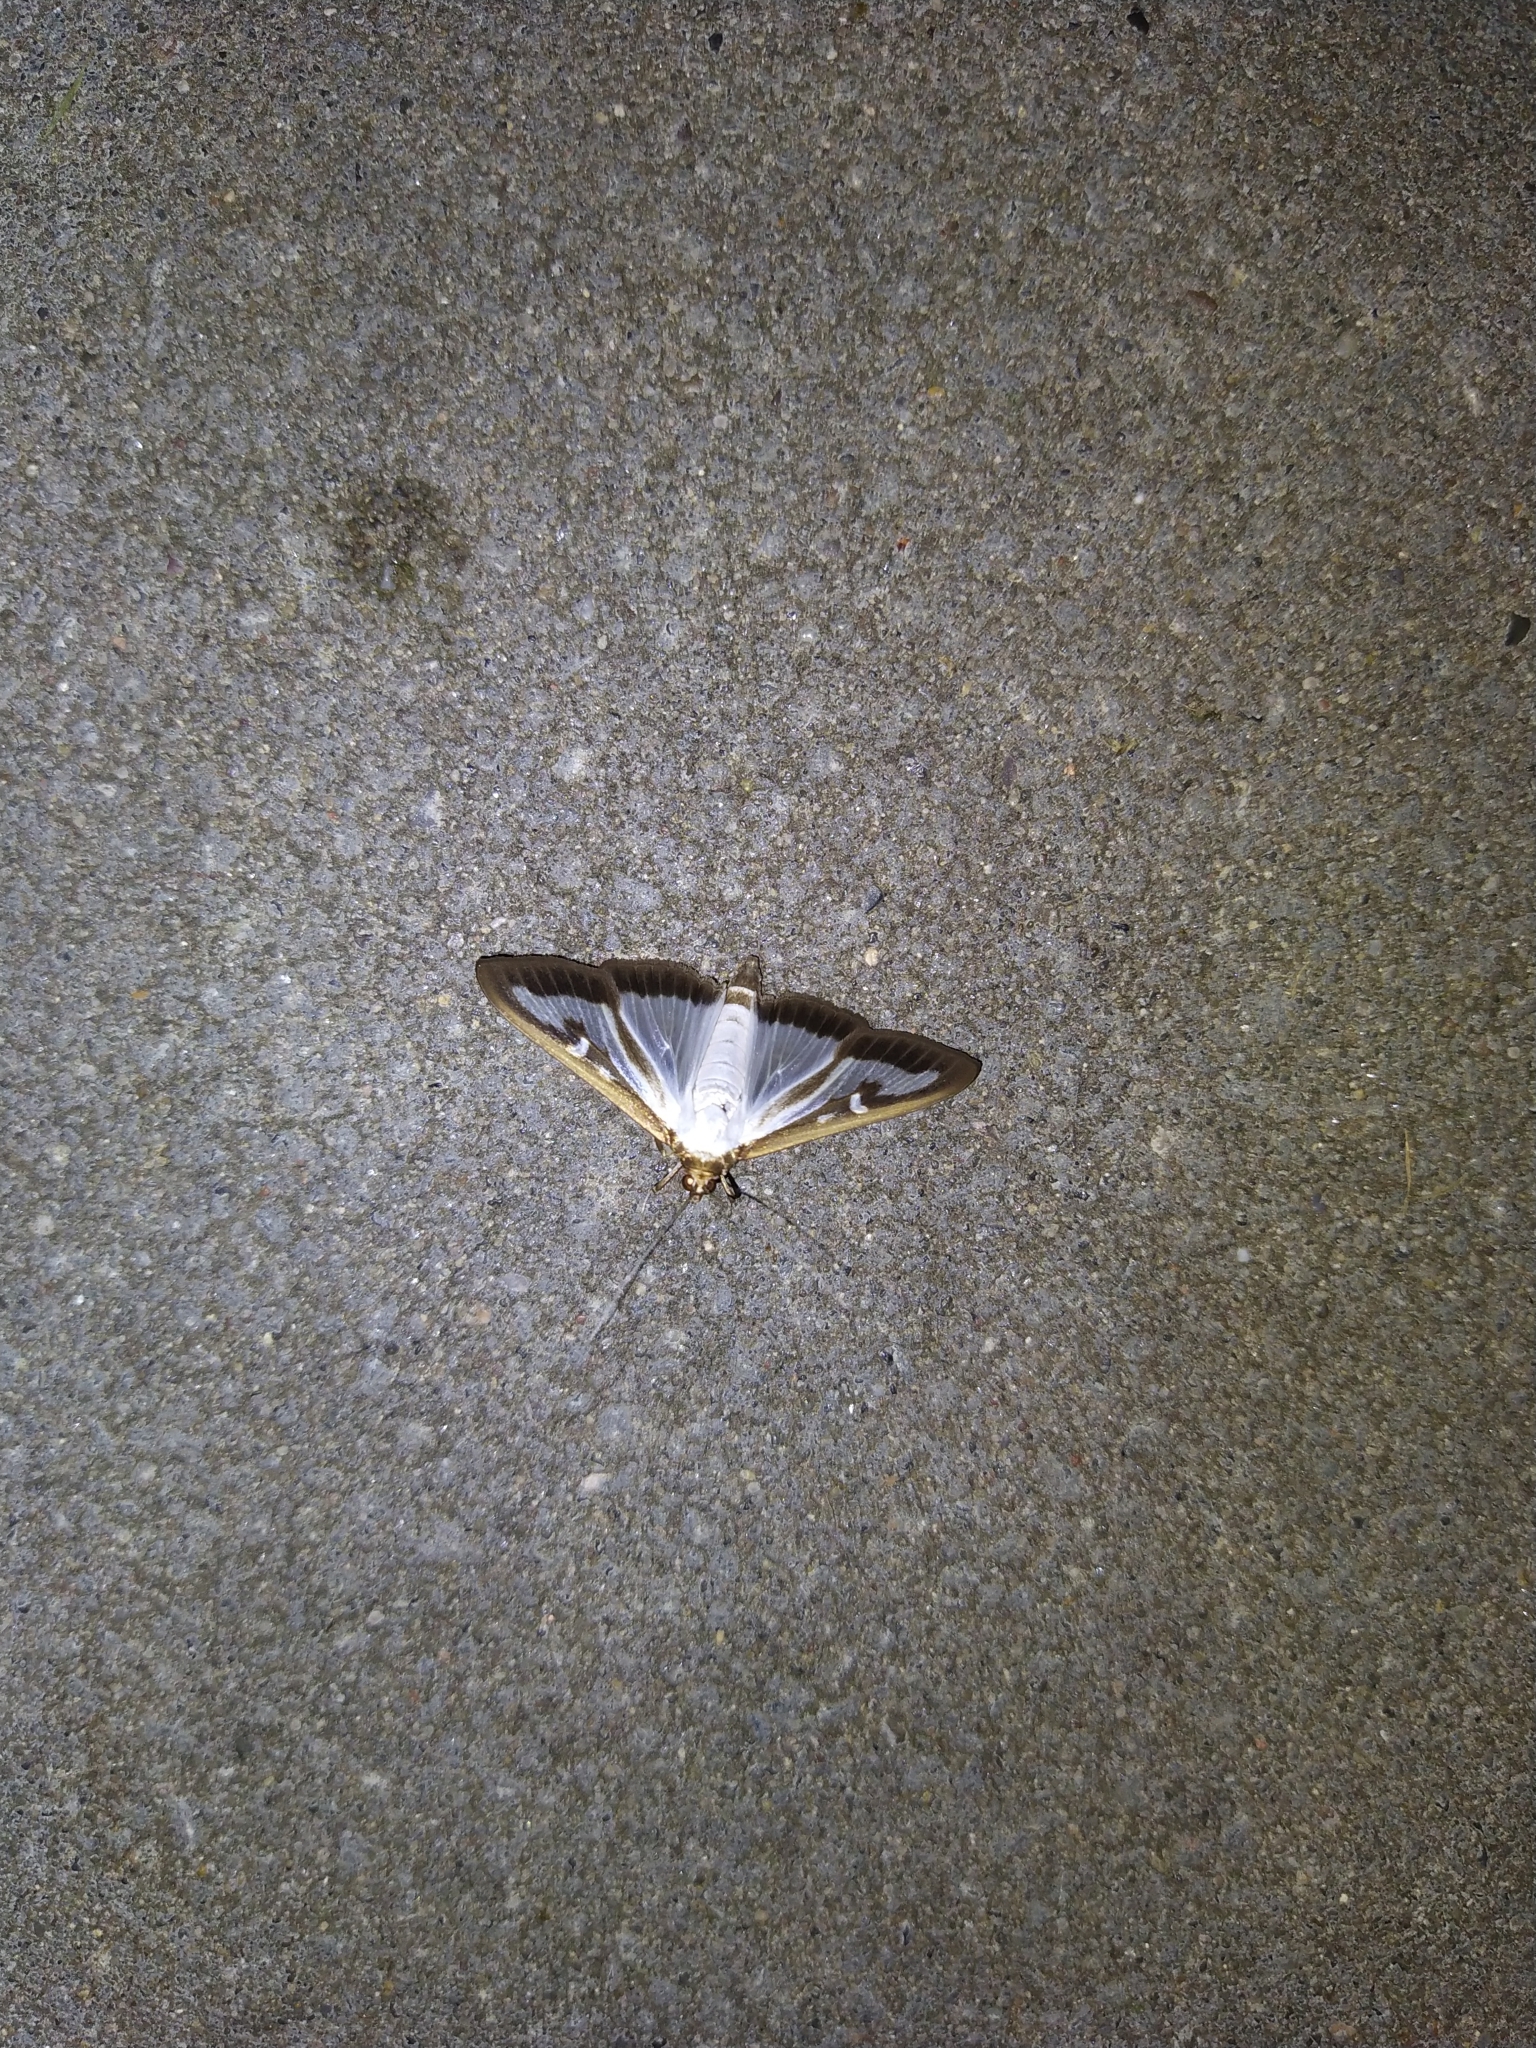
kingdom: Animalia
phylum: Arthropoda
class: Insecta
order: Lepidoptera
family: Crambidae
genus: Cydalima
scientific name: Cydalima perspectalis
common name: Box tree moth
